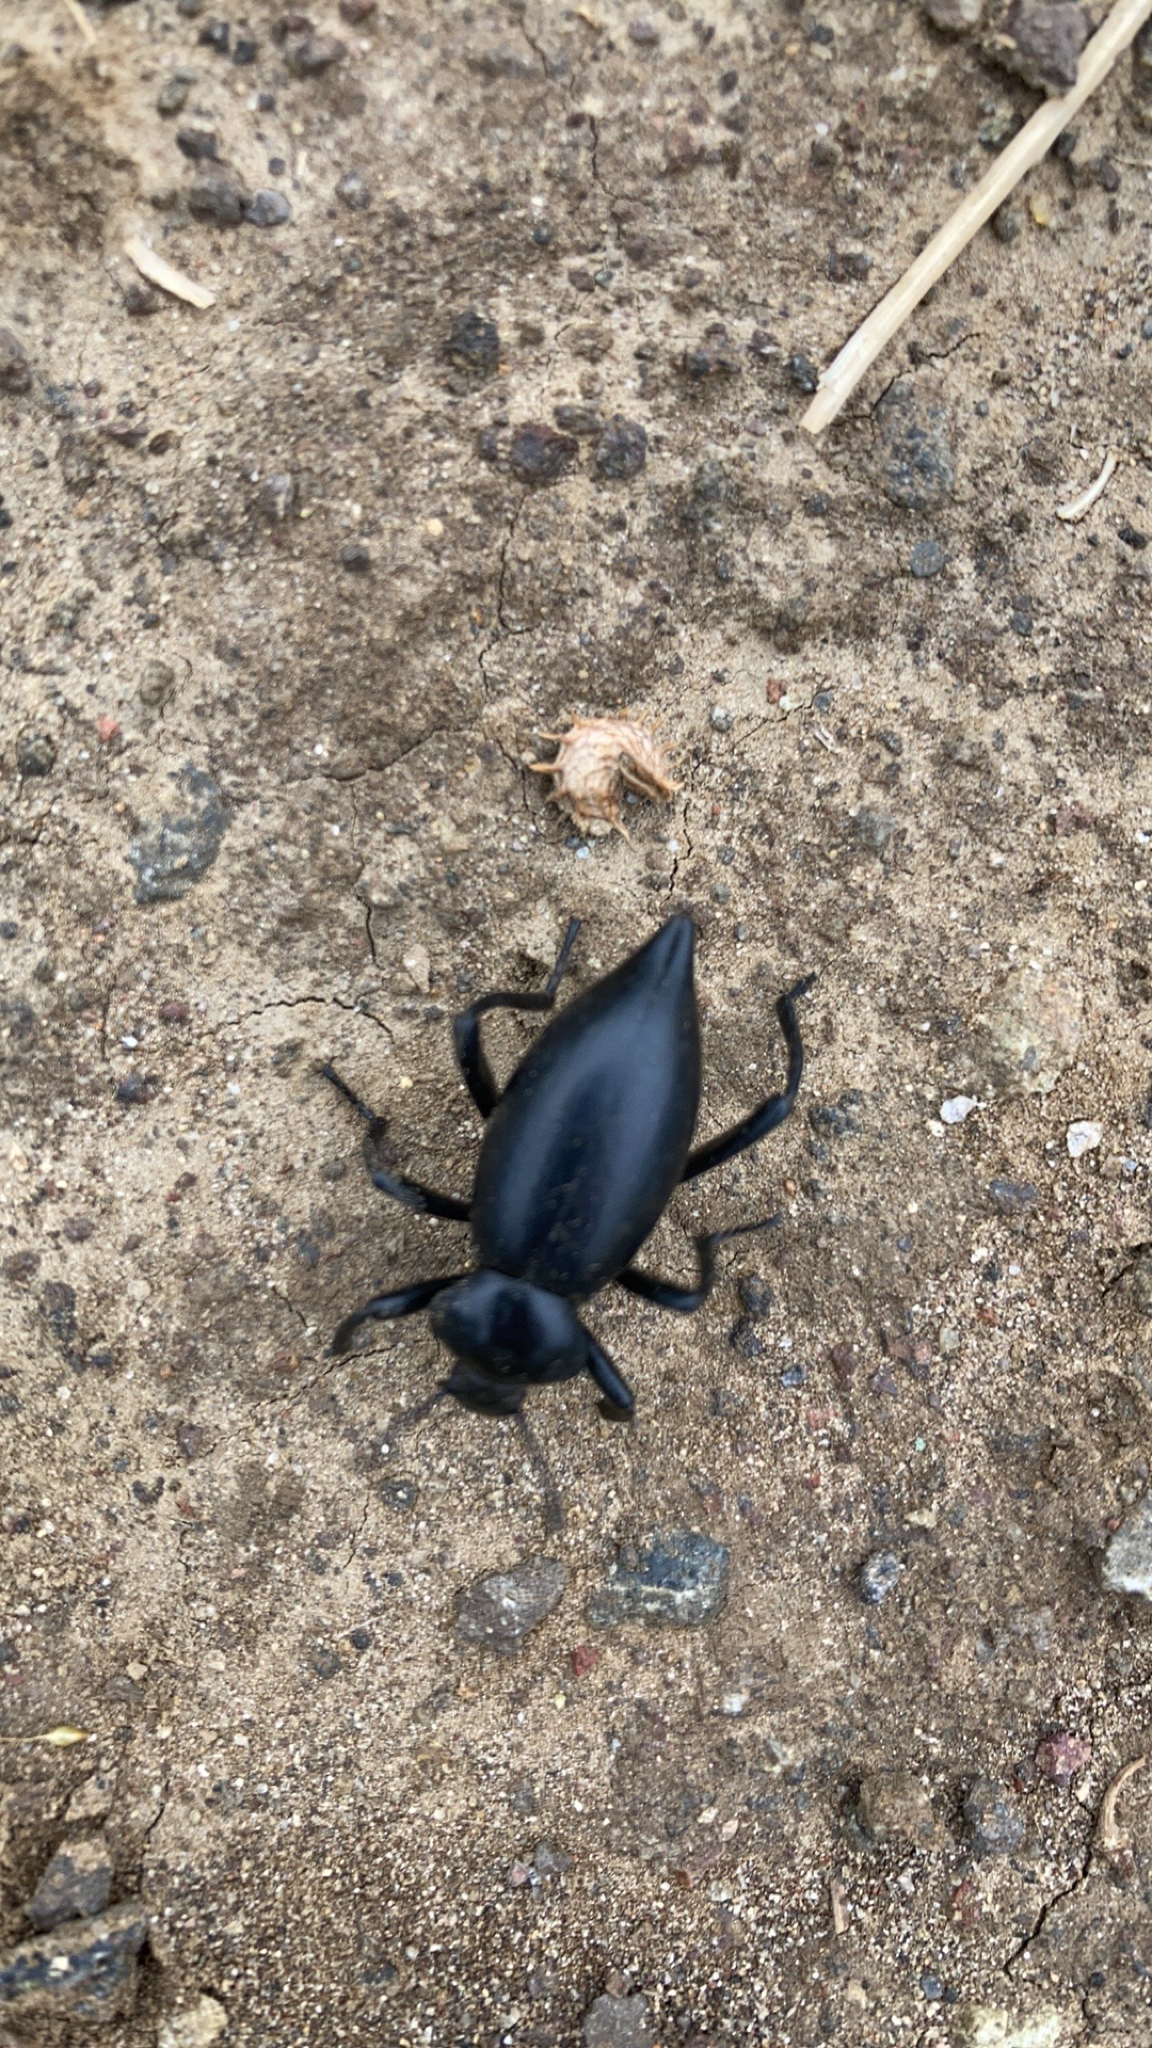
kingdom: Animalia
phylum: Arthropoda
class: Insecta
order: Coleoptera
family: Tenebrionidae
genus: Eleodes
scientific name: Eleodes acuticauda
